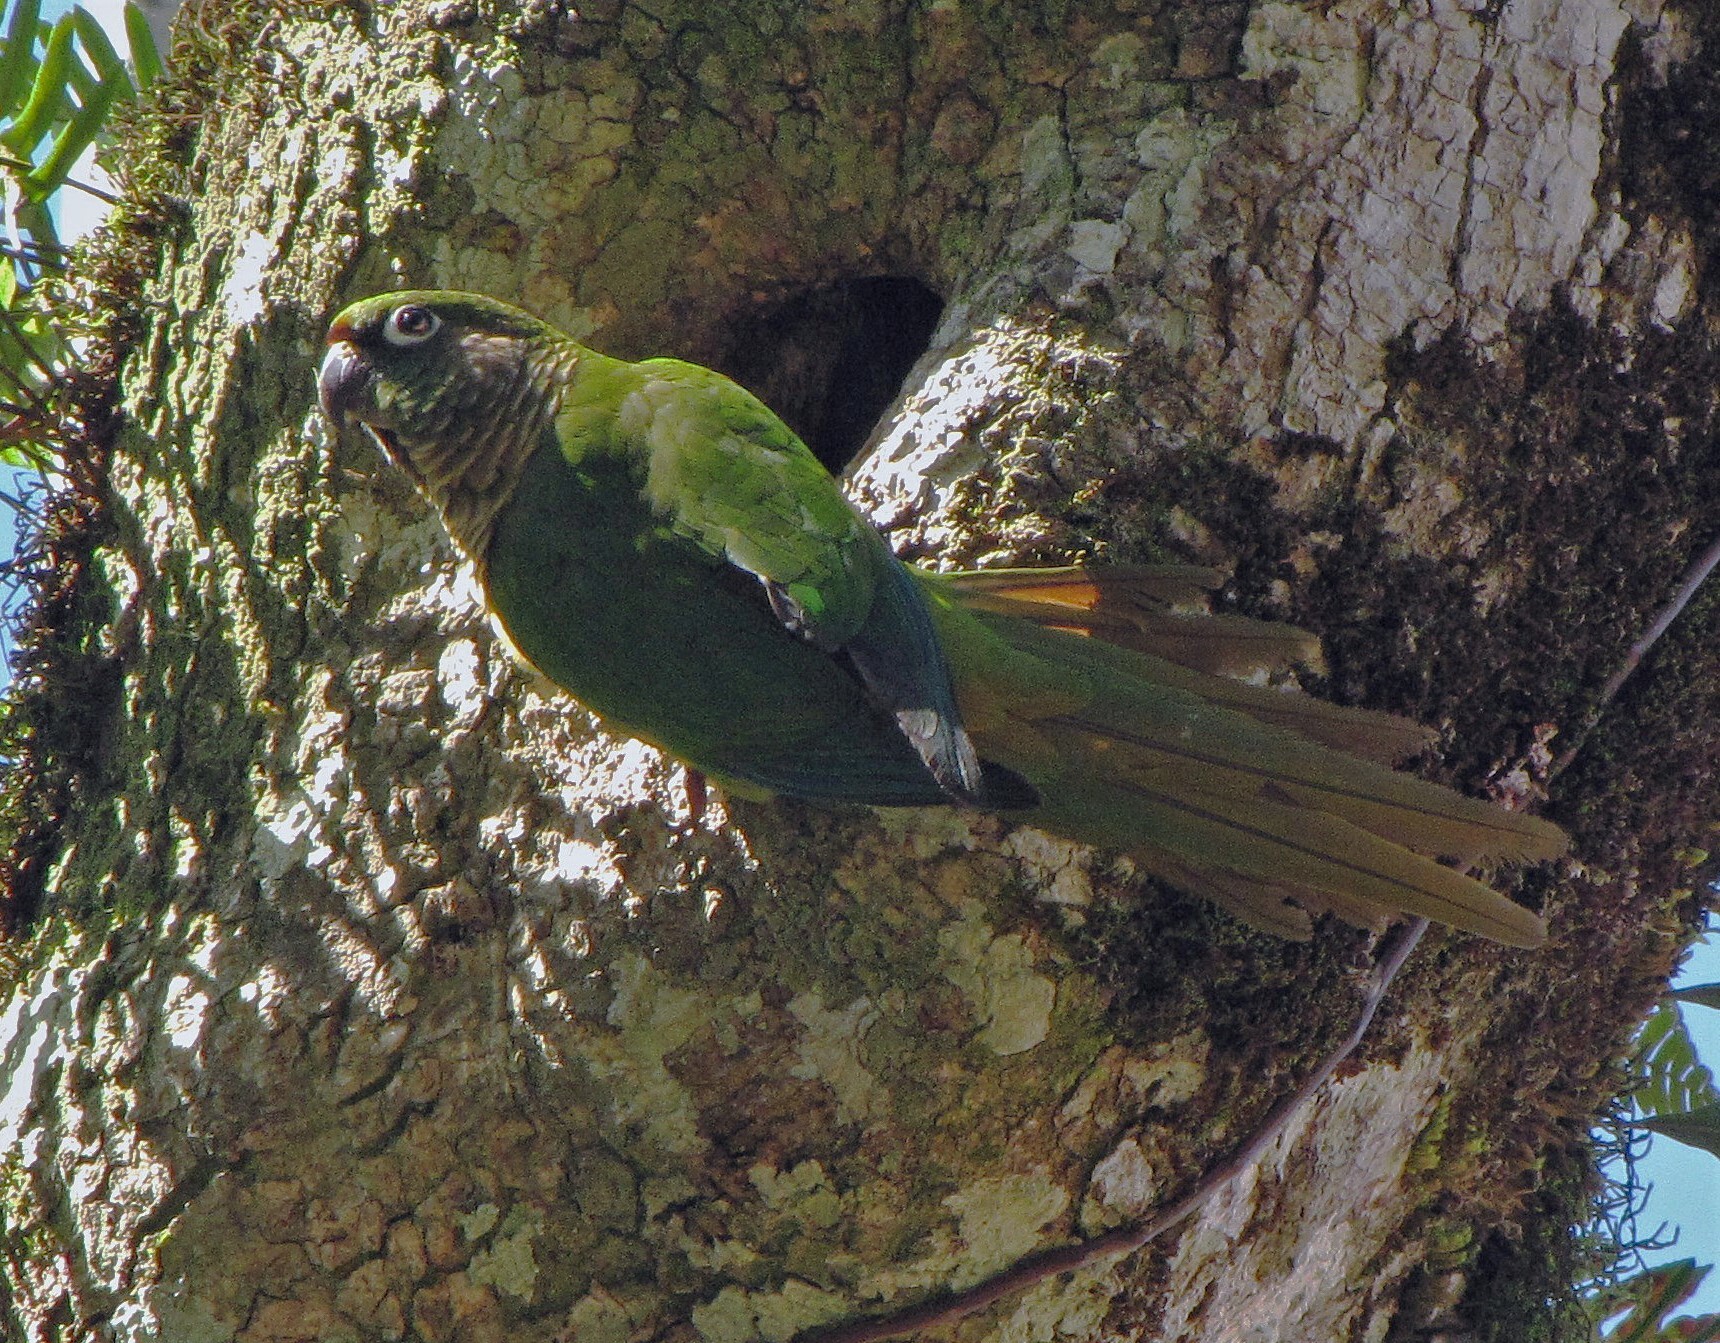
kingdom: Animalia
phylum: Chordata
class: Aves
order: Psittaciformes
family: Psittacidae
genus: Pyrrhura
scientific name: Pyrrhura frontalis
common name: Maroon-bellied parakeet
